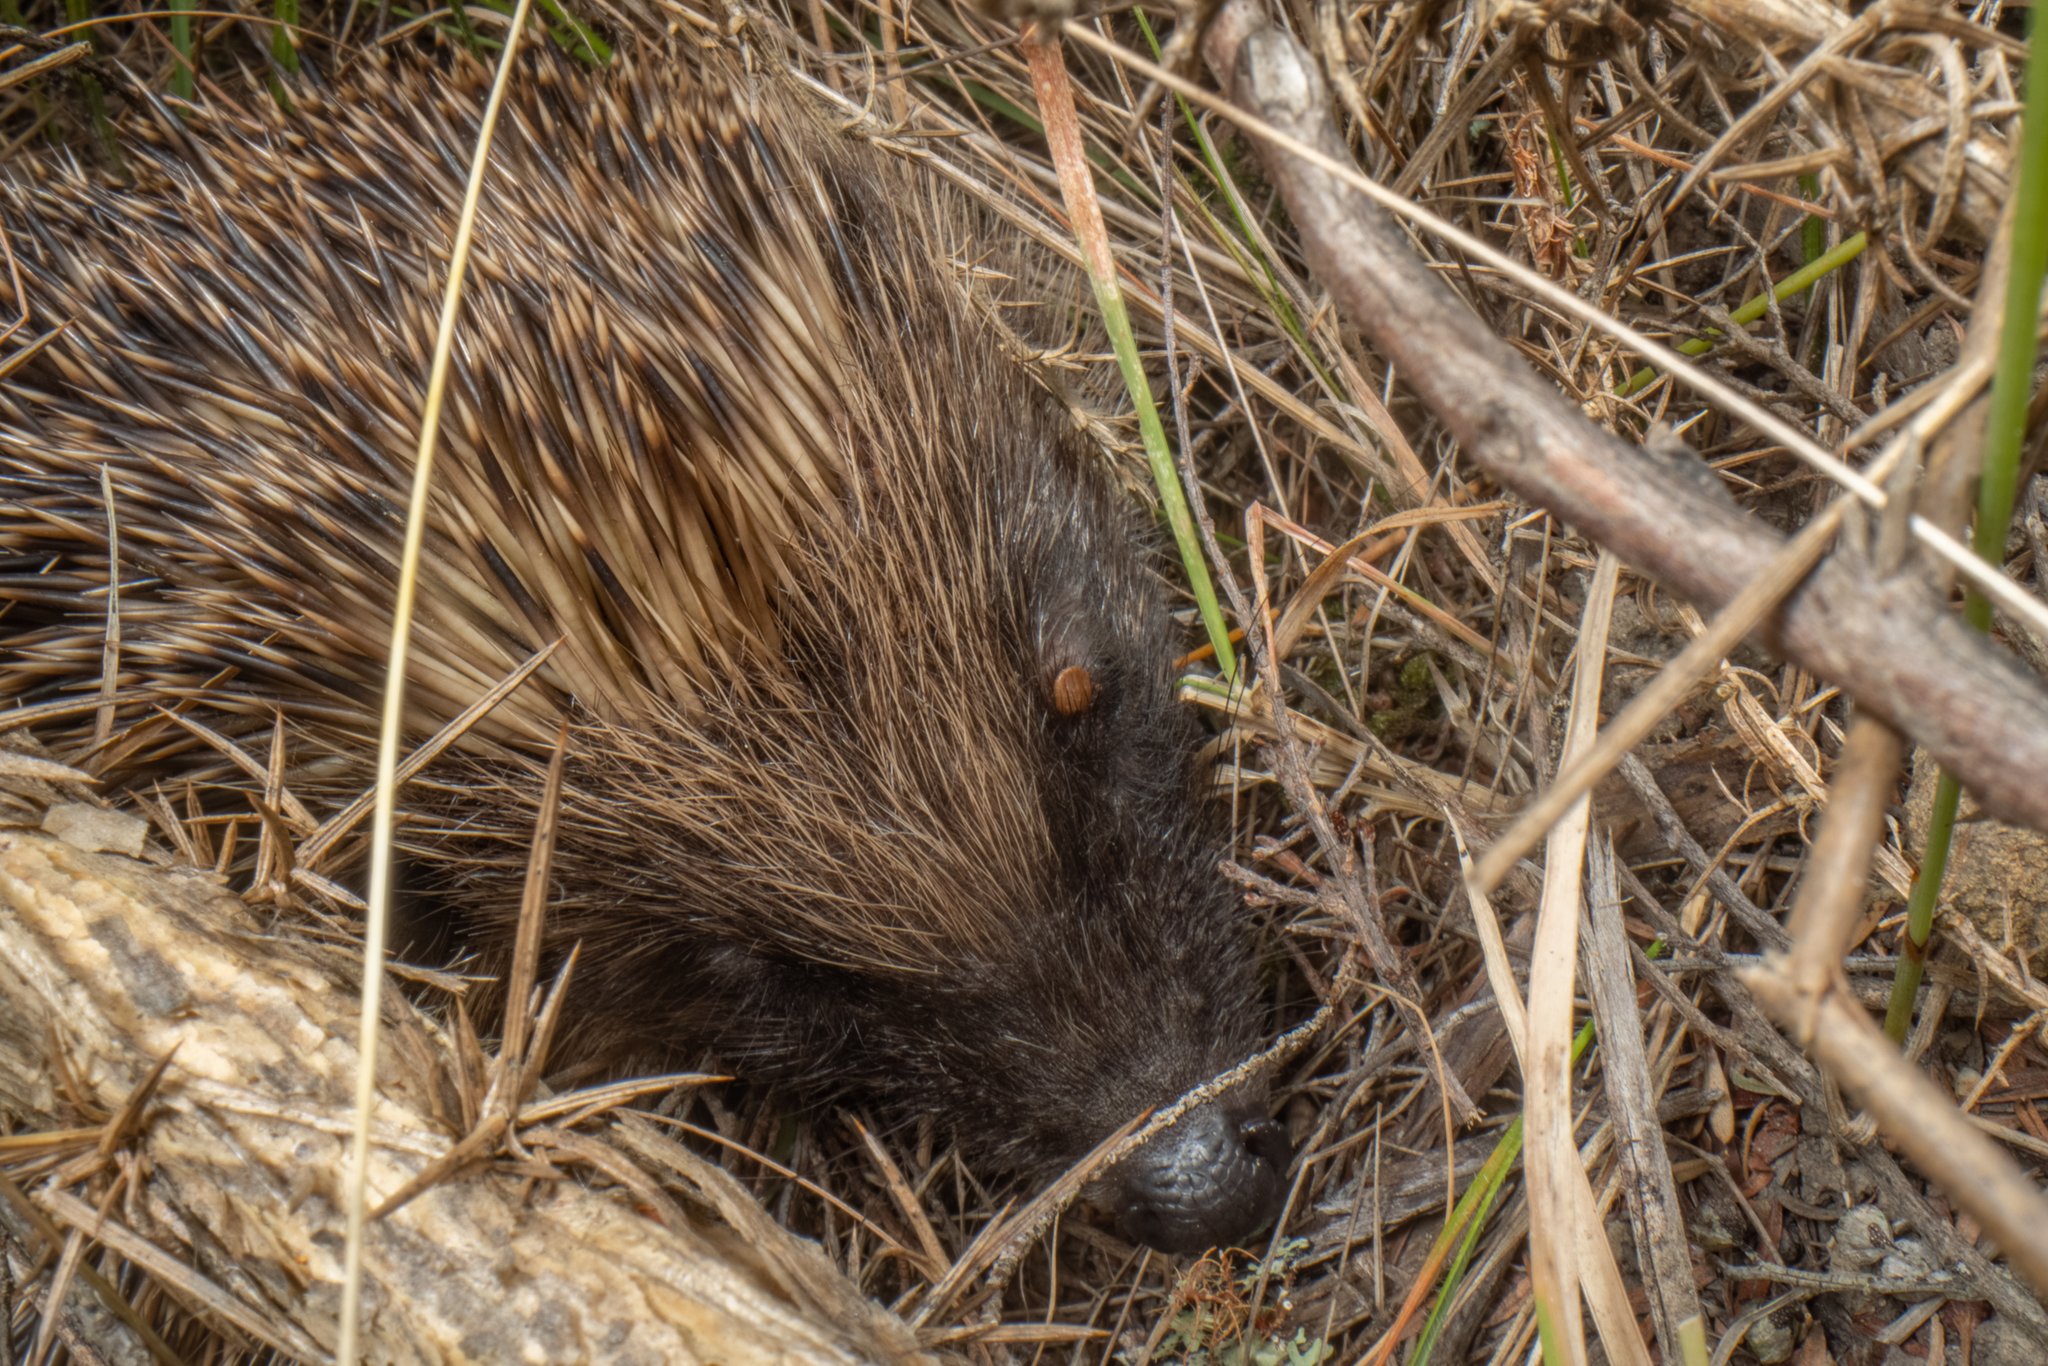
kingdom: Animalia
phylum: Chordata
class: Mammalia
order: Erinaceomorpha
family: Erinaceidae
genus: Erinaceus
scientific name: Erinaceus europaeus
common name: West european hedgehog
